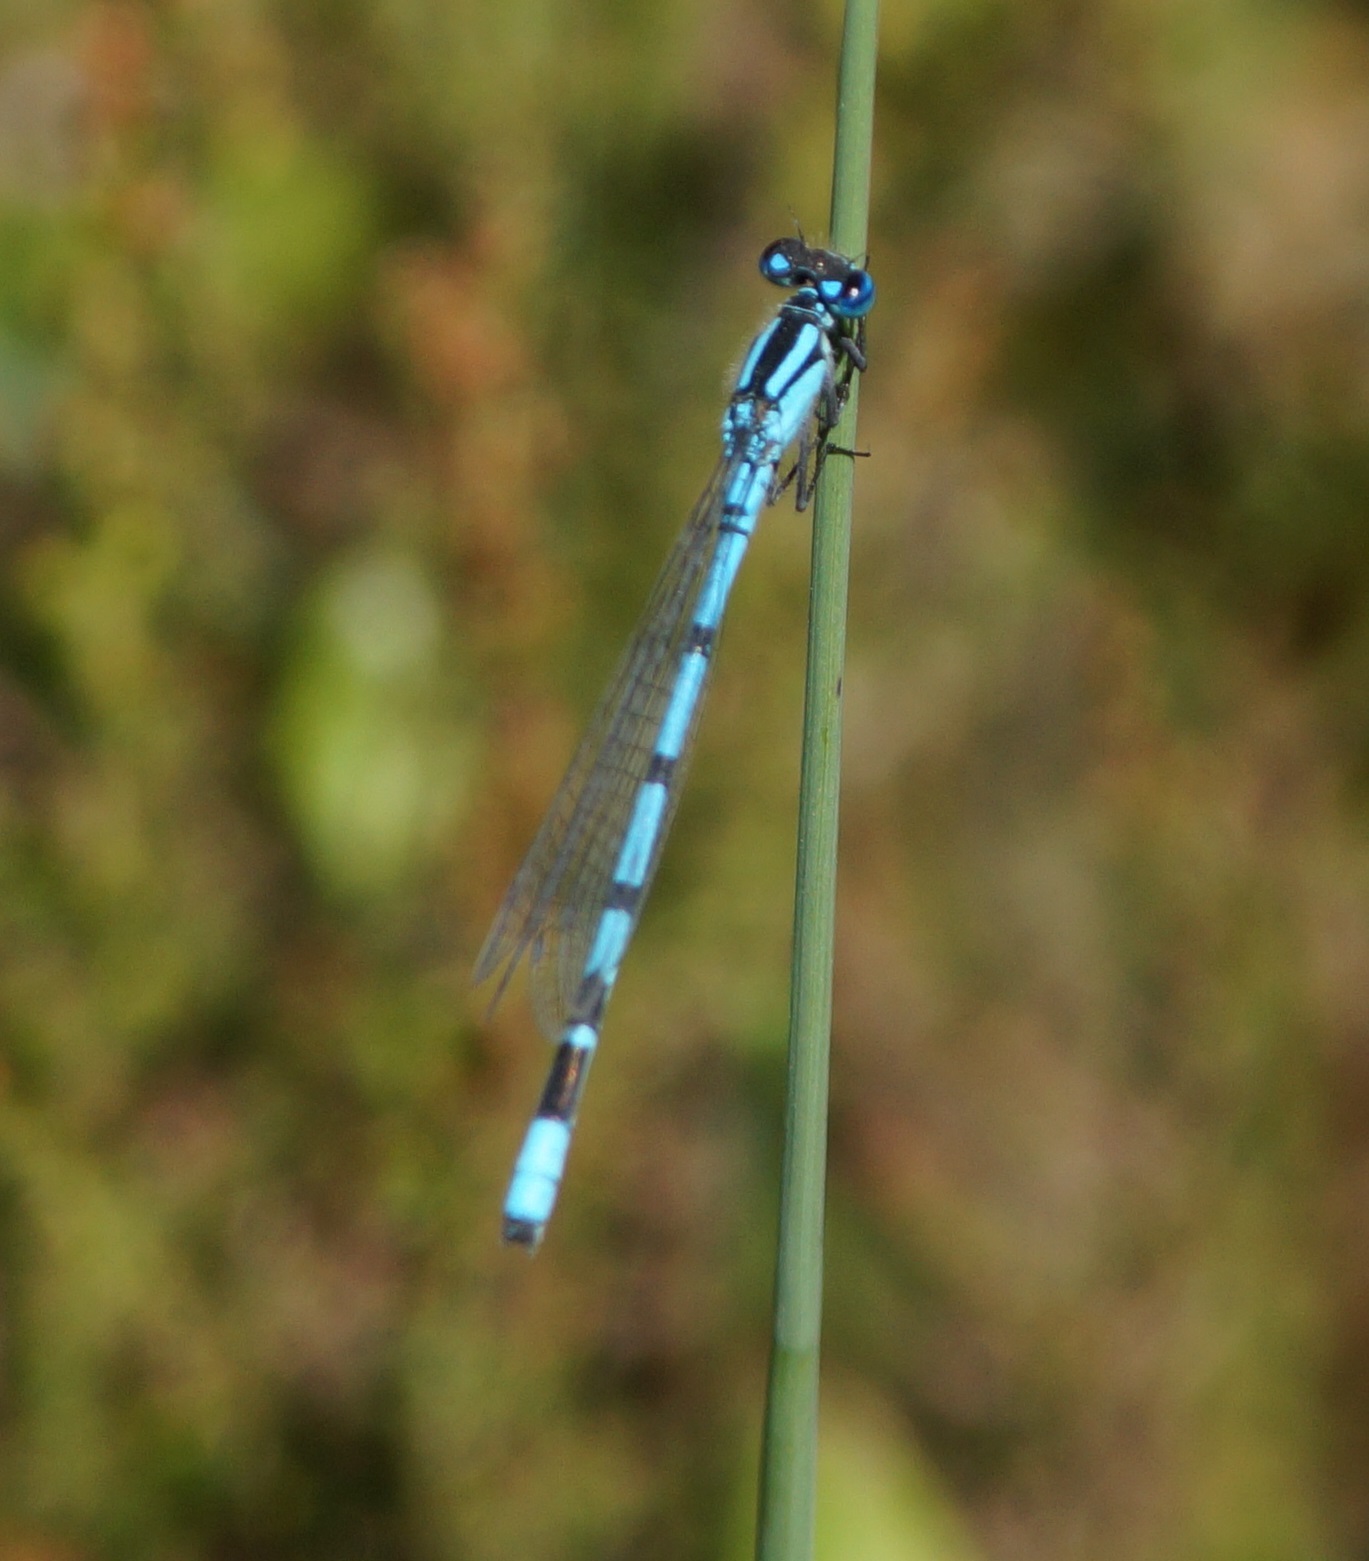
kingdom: Animalia
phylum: Arthropoda
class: Insecta
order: Odonata
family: Coenagrionidae
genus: Enallagma
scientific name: Enallagma cyathigerum
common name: Common blue damselfly
